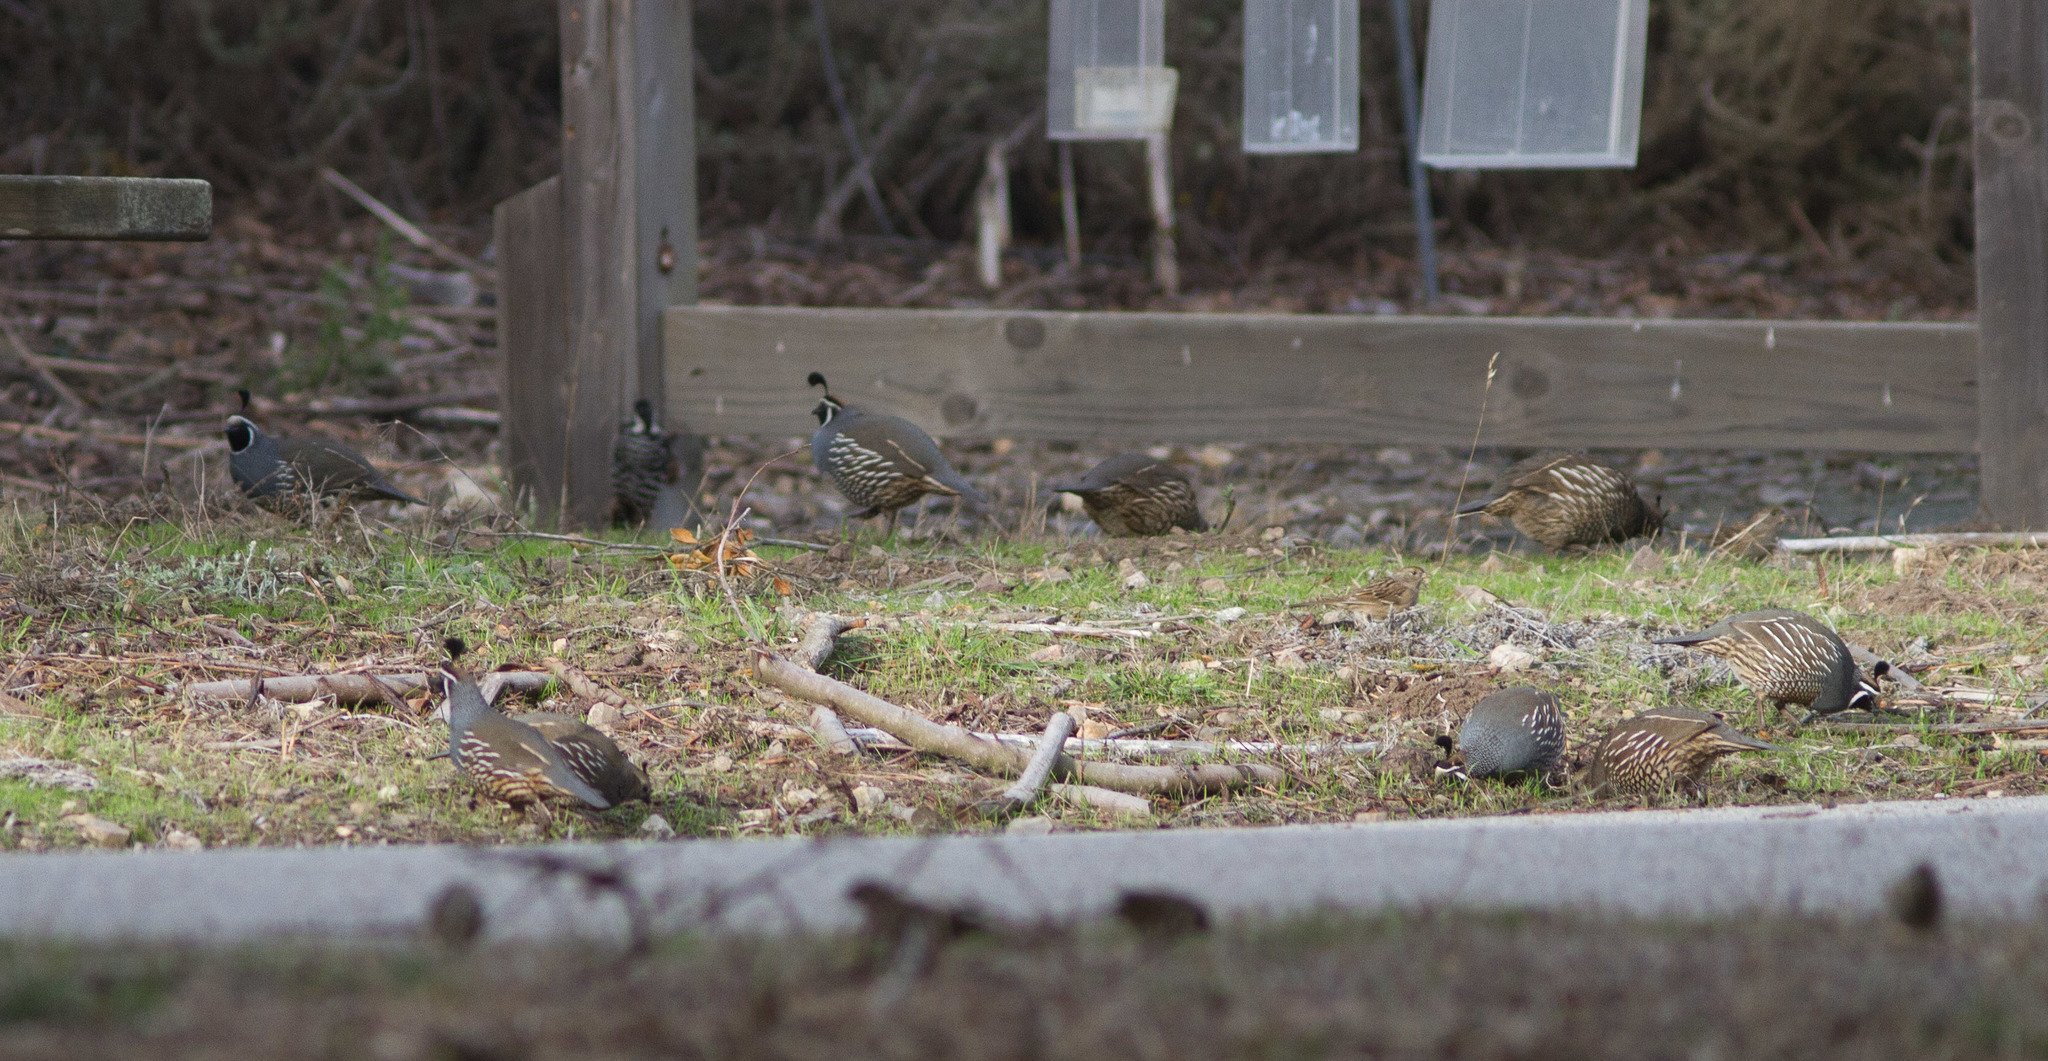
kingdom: Animalia
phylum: Chordata
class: Aves
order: Galliformes
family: Odontophoridae
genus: Callipepla
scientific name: Callipepla californica
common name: California quail
